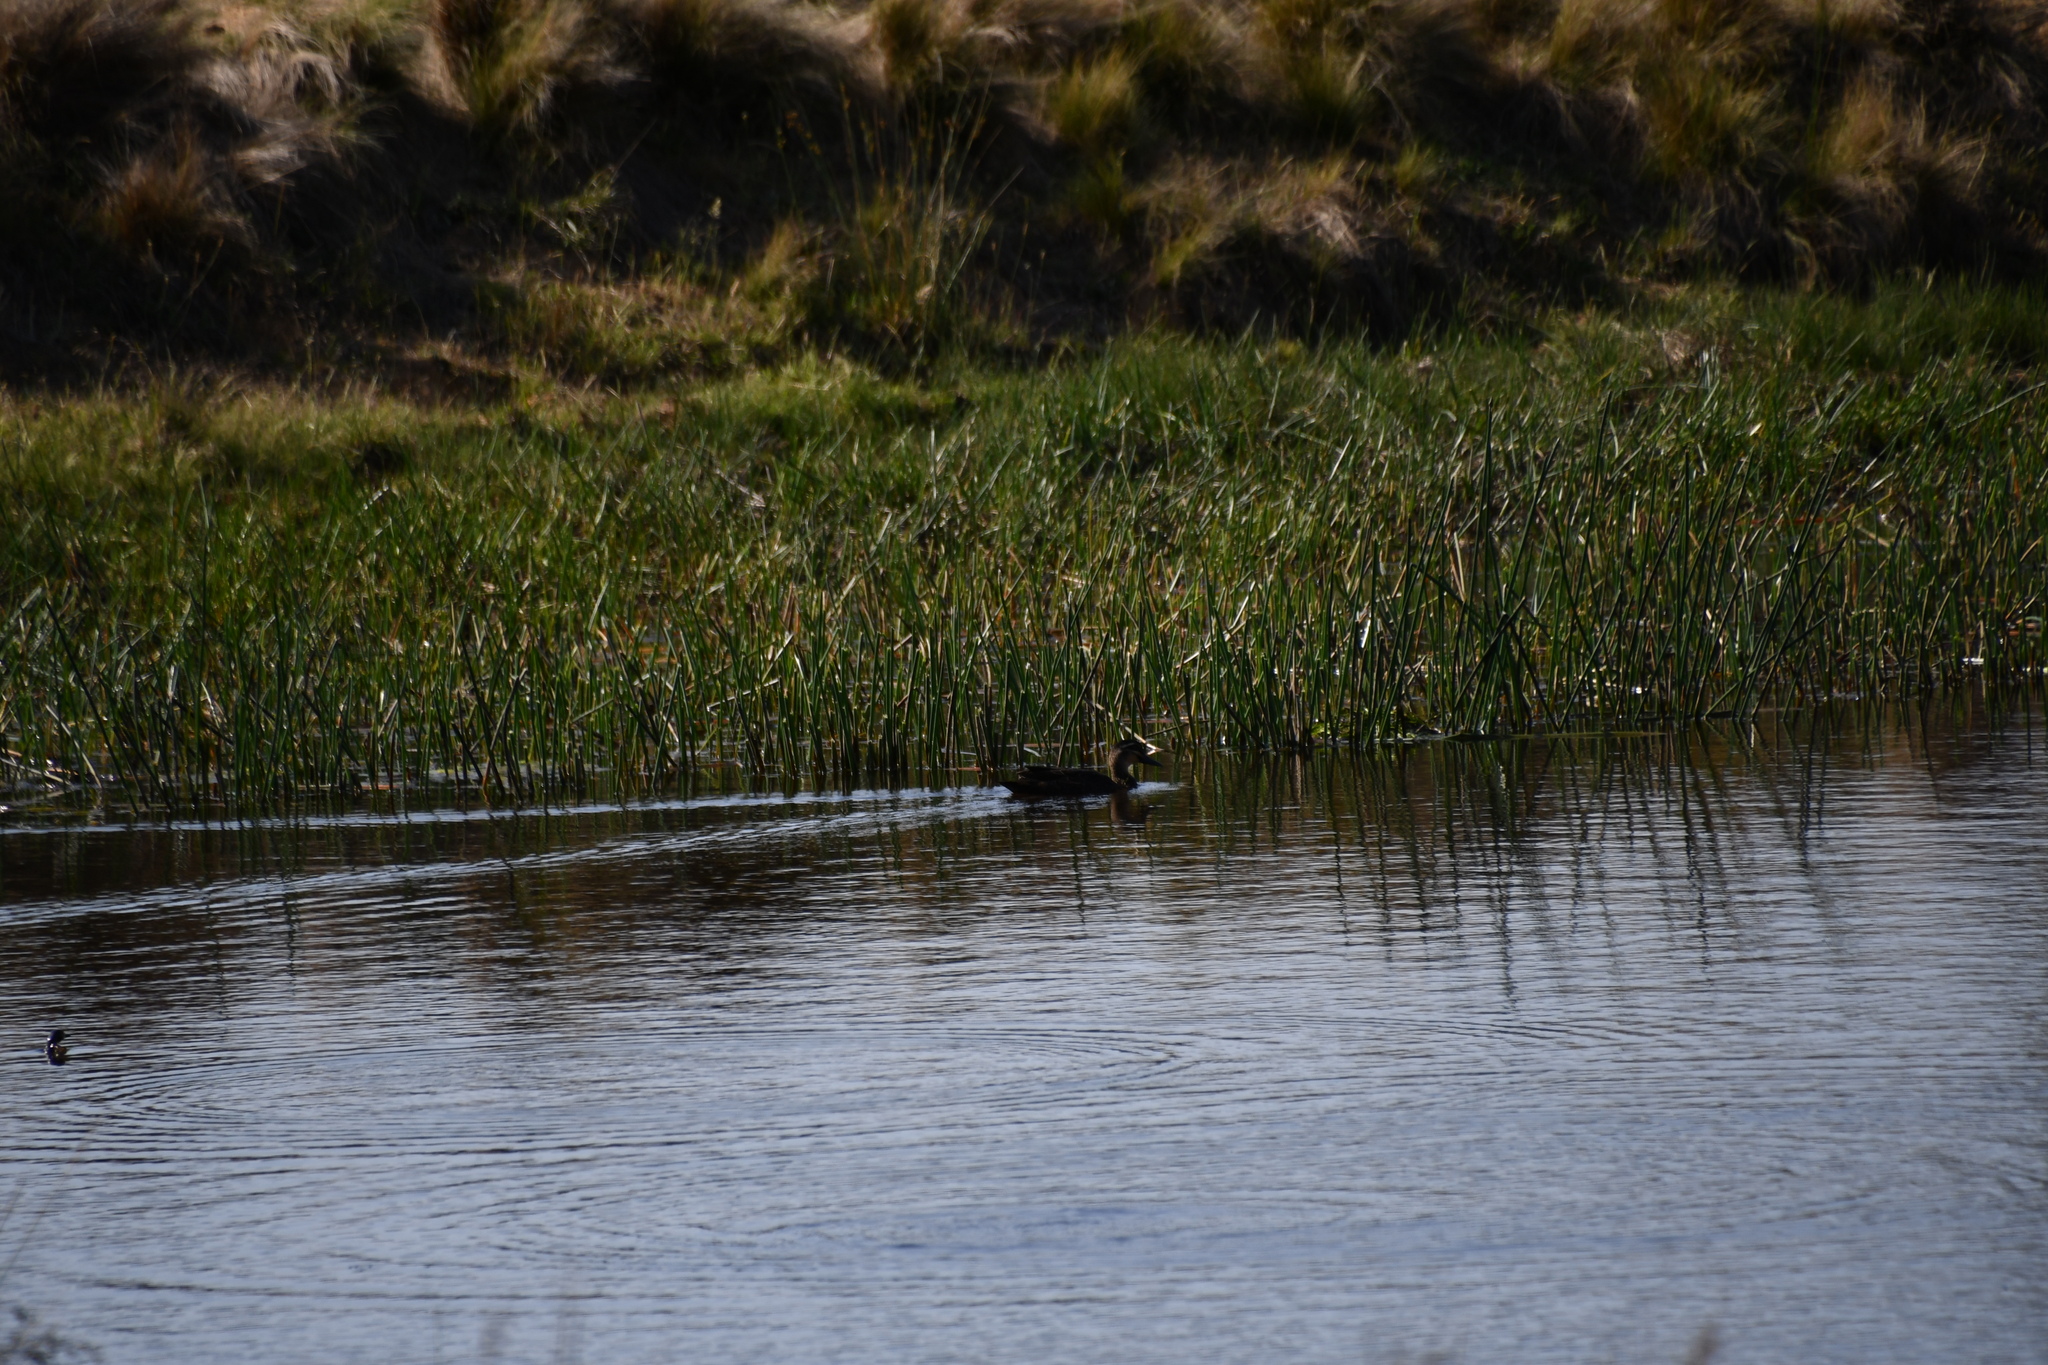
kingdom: Animalia
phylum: Chordata
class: Aves
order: Anseriformes
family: Anatidae
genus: Anas
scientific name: Anas superciliosa
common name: Pacific black duck
